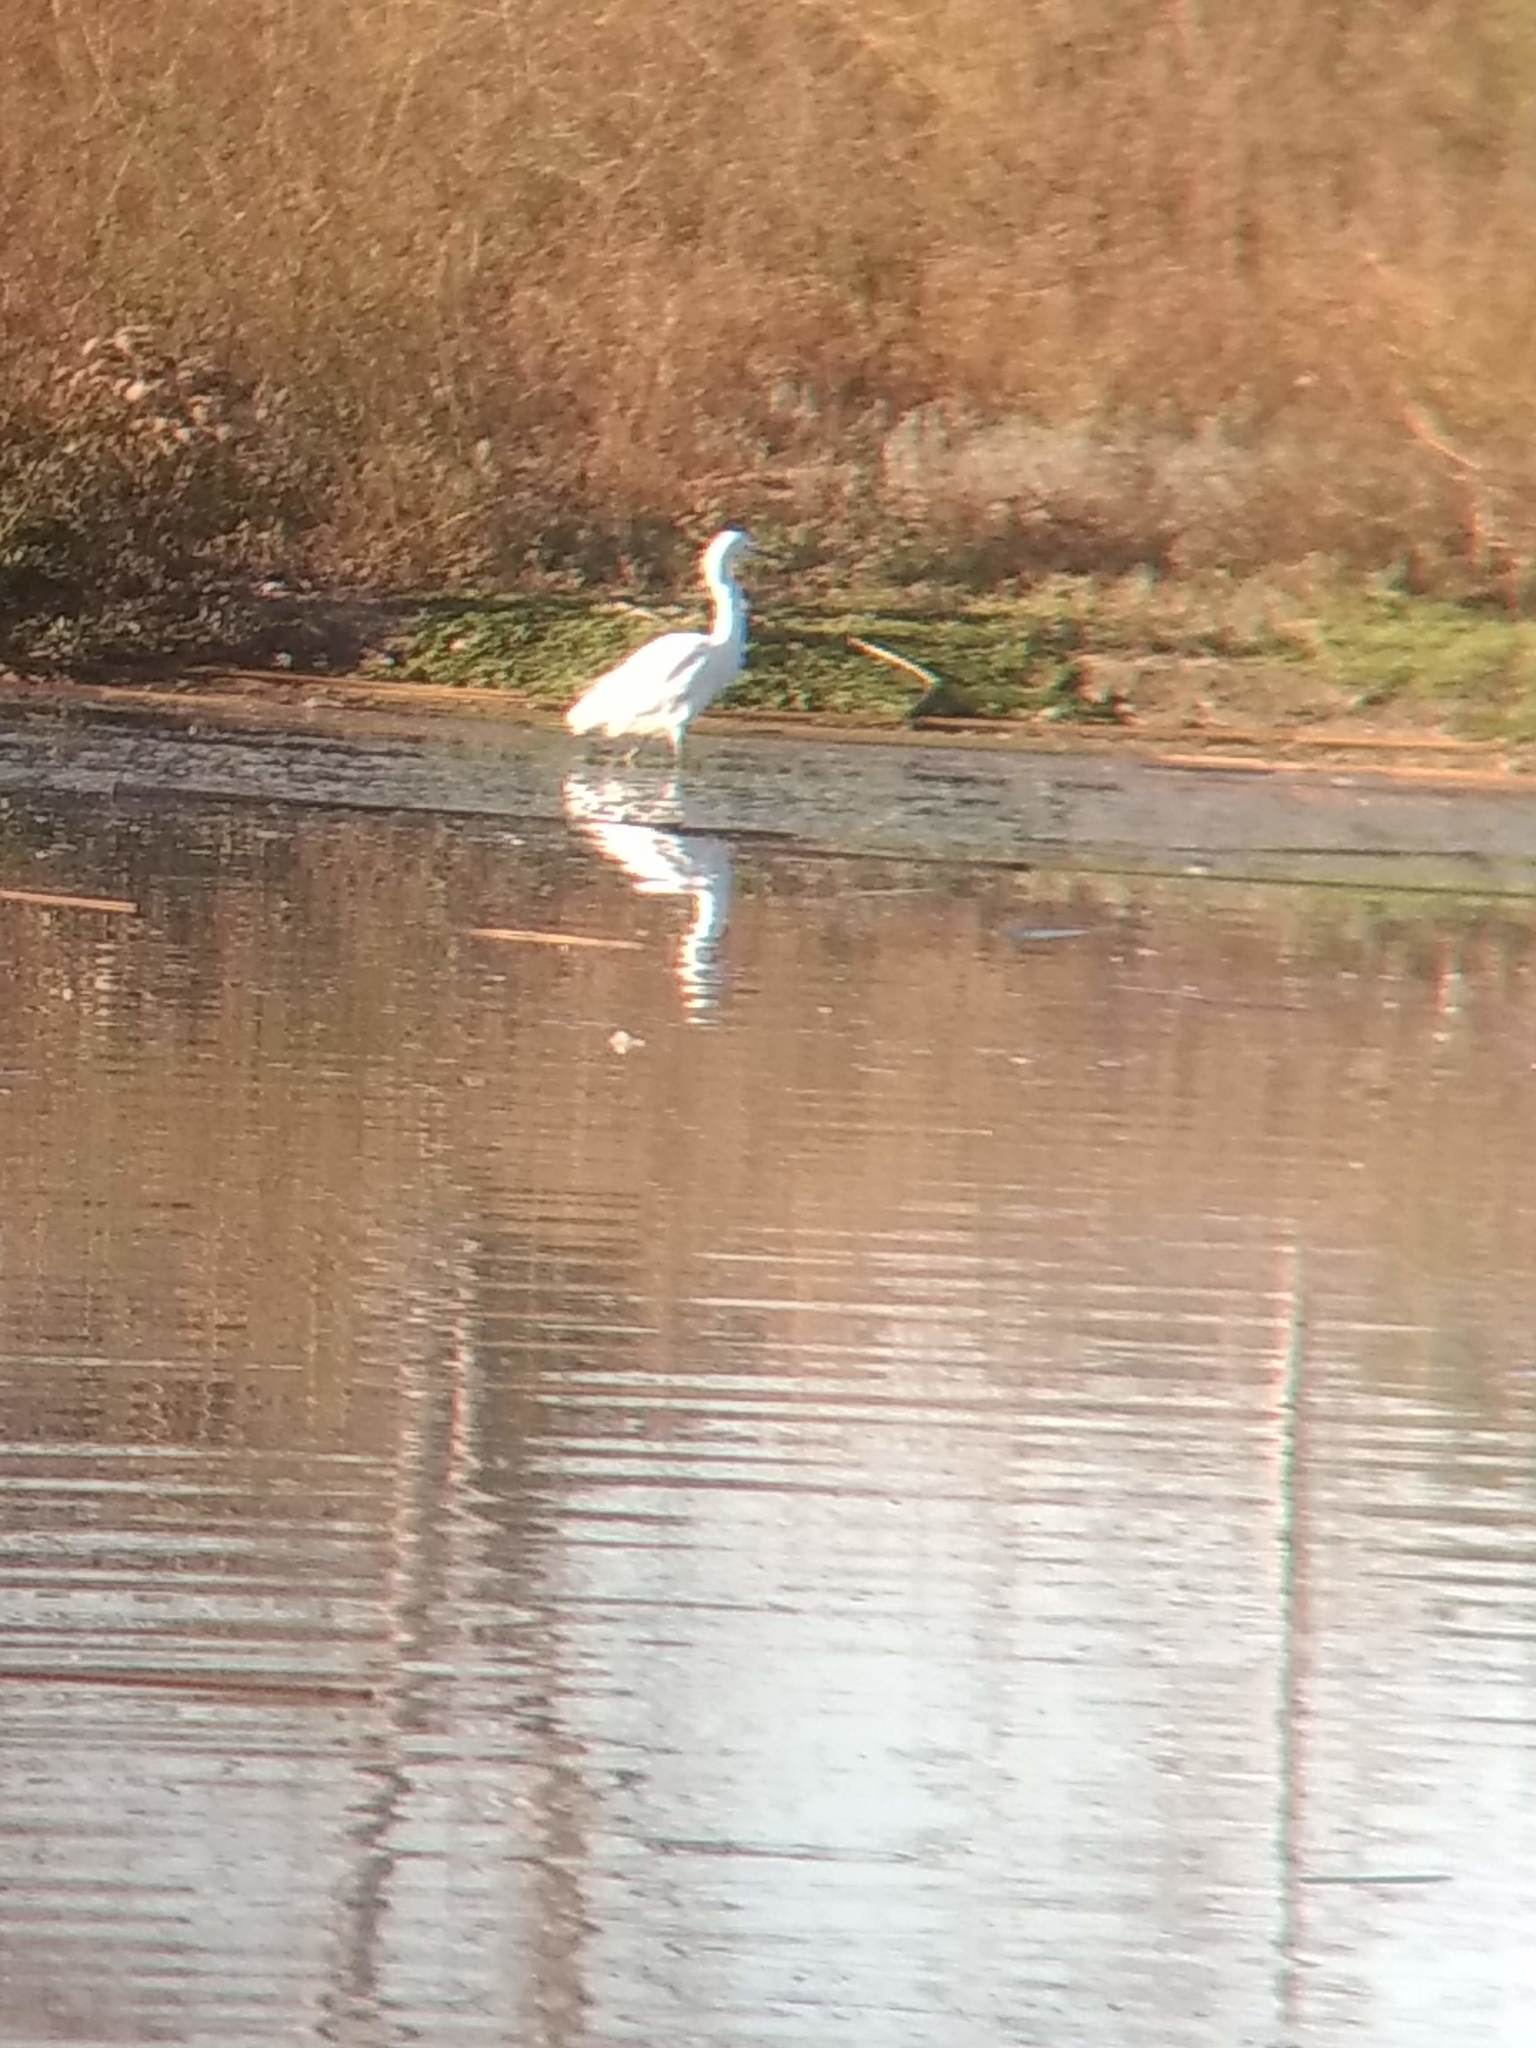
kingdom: Animalia
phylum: Chordata
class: Aves
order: Pelecaniformes
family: Ardeidae
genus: Egretta
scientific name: Egretta thula
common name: Snowy egret
